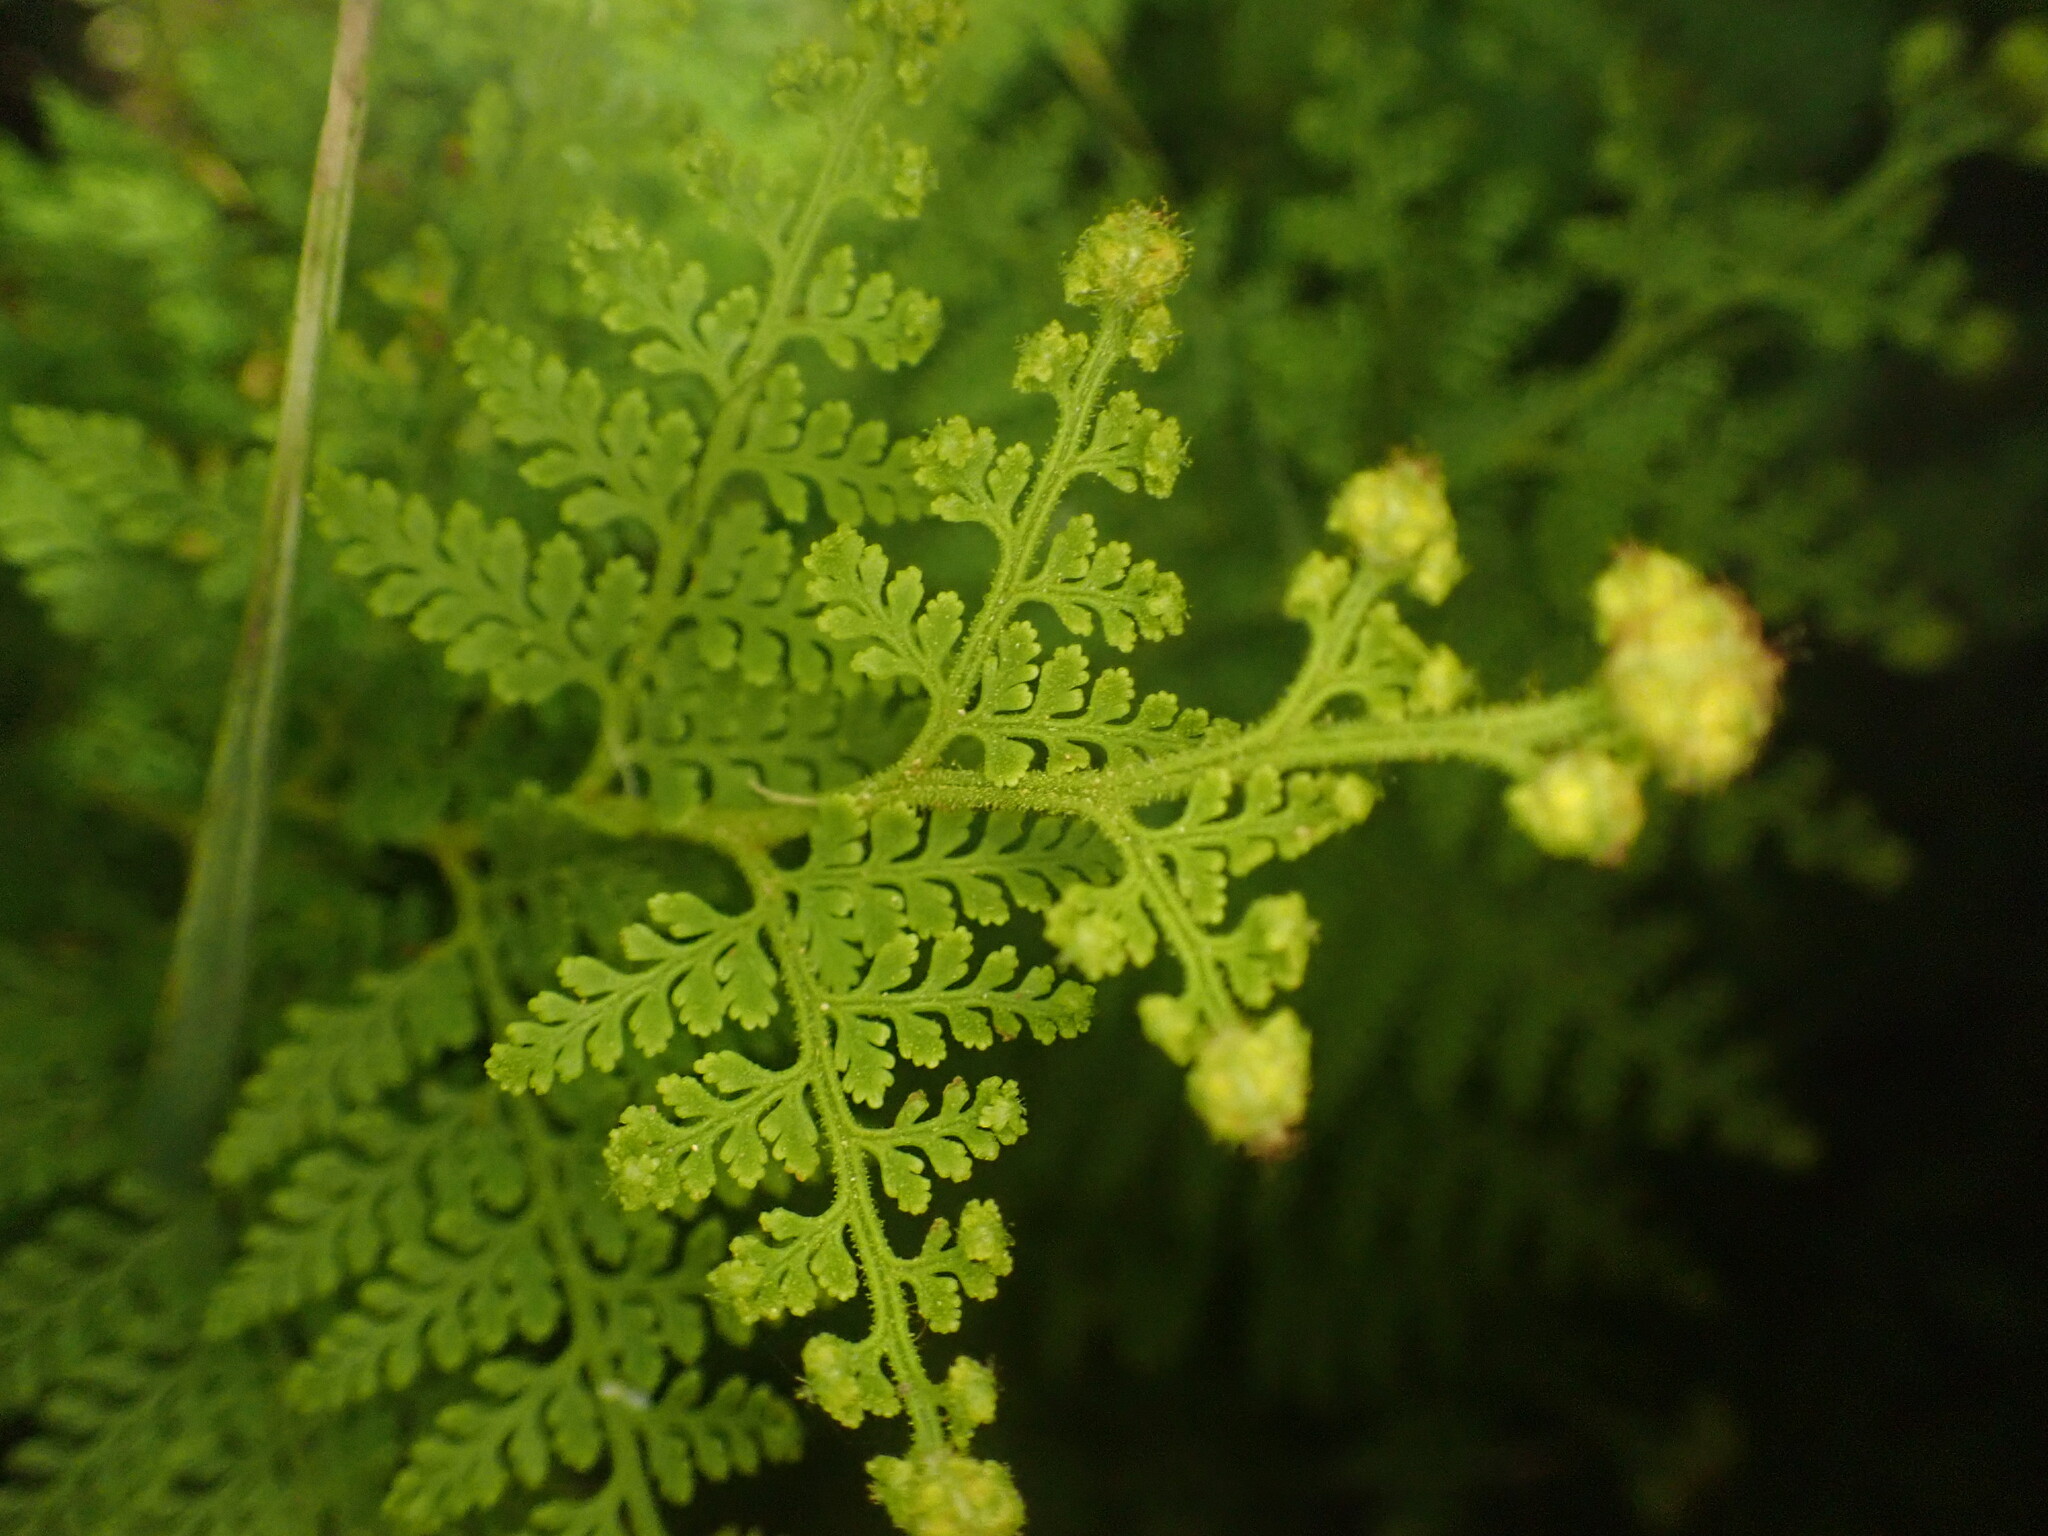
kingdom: Plantae
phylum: Tracheophyta
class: Polypodiopsida
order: Polypodiales
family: Dennstaedtiaceae
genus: Paesia
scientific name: Paesia scaberula
